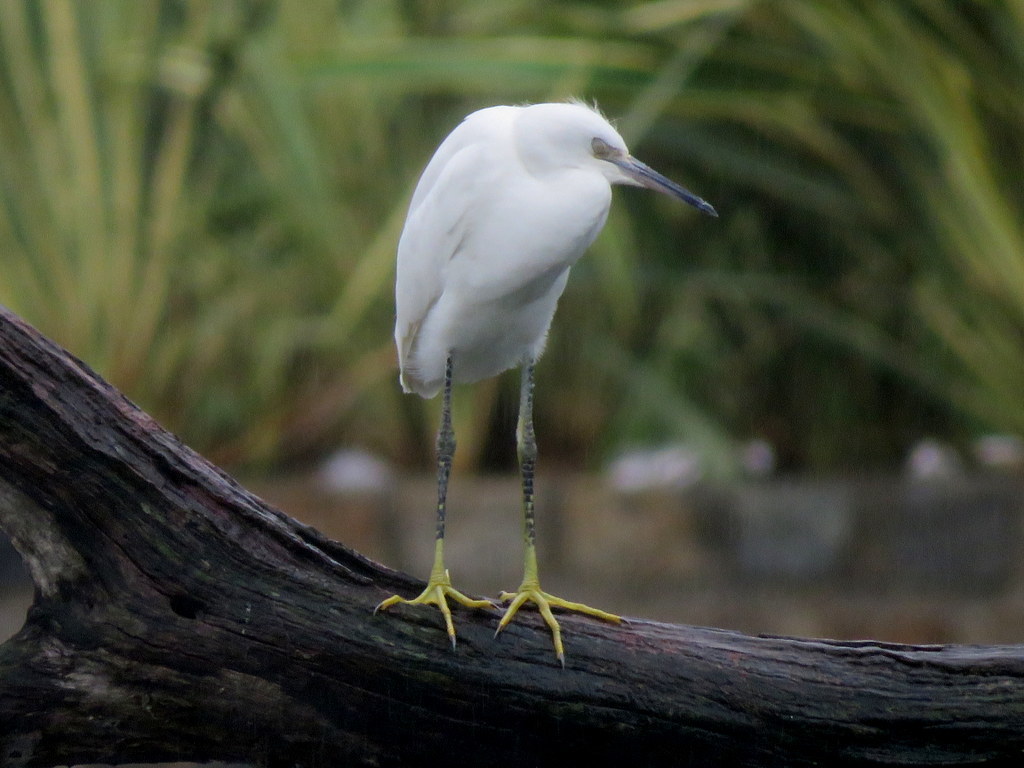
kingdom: Animalia
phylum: Chordata
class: Aves
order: Pelecaniformes
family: Ardeidae
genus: Egretta
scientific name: Egretta thula
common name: Snowy egret
